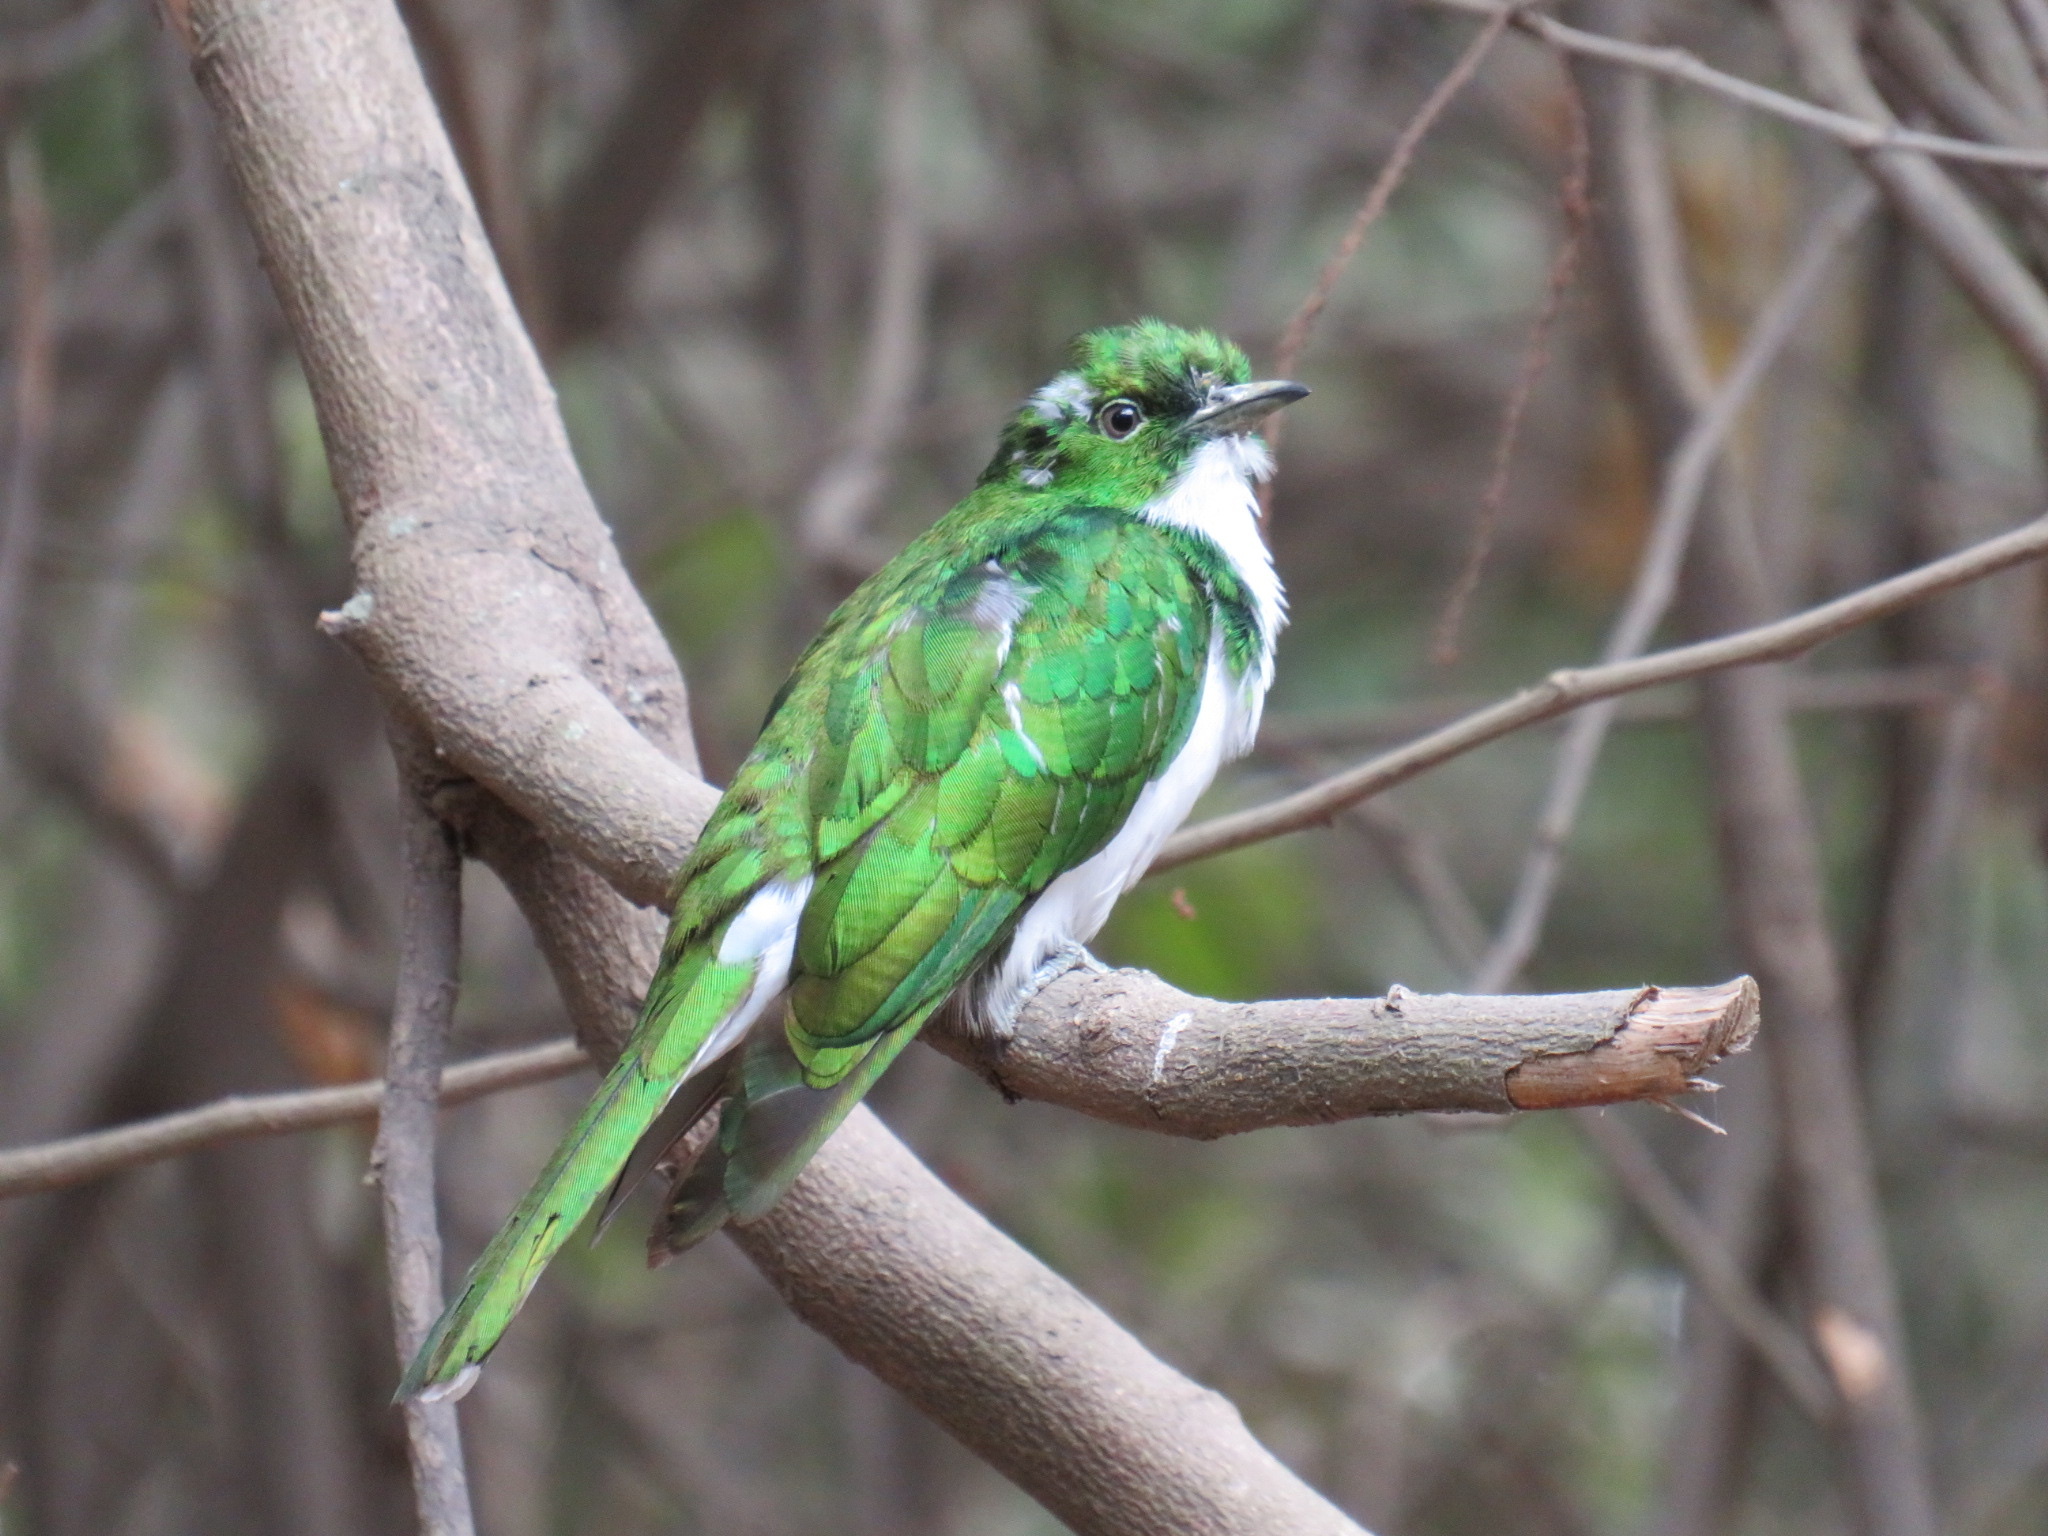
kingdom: Animalia
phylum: Chordata
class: Aves
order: Cuculiformes
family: Cuculidae
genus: Chrysococcyx
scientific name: Chrysococcyx klaas
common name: Klaas's cuckoo
